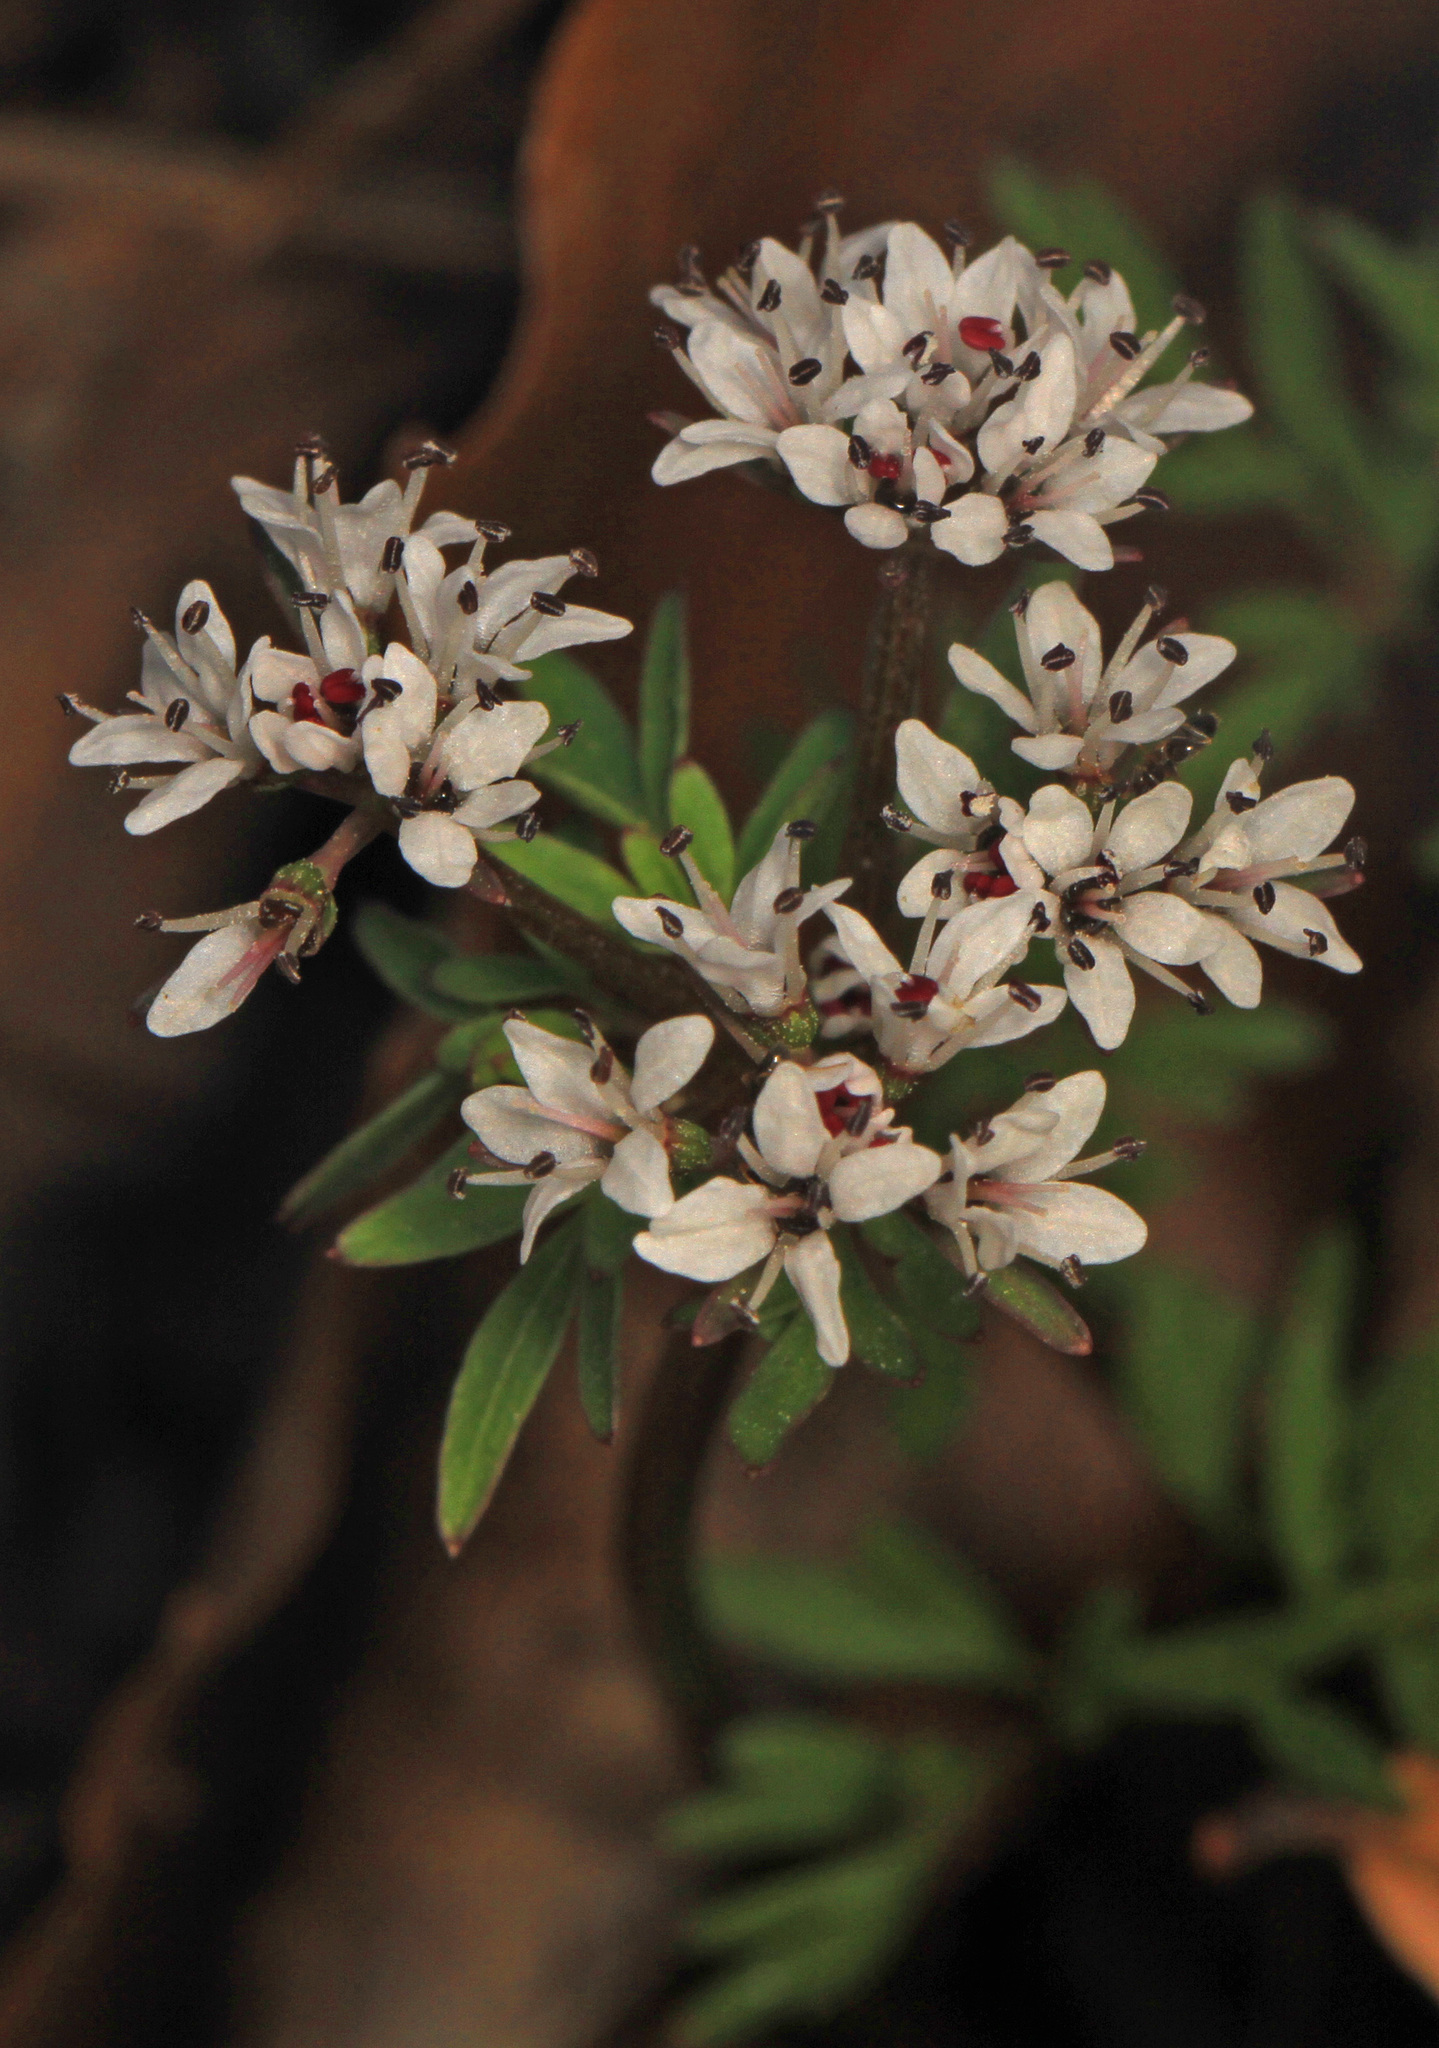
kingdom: Plantae
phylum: Tracheophyta
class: Magnoliopsida
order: Apiales
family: Apiaceae
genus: Erigenia
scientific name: Erigenia bulbosa
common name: Pepper-and-salt
